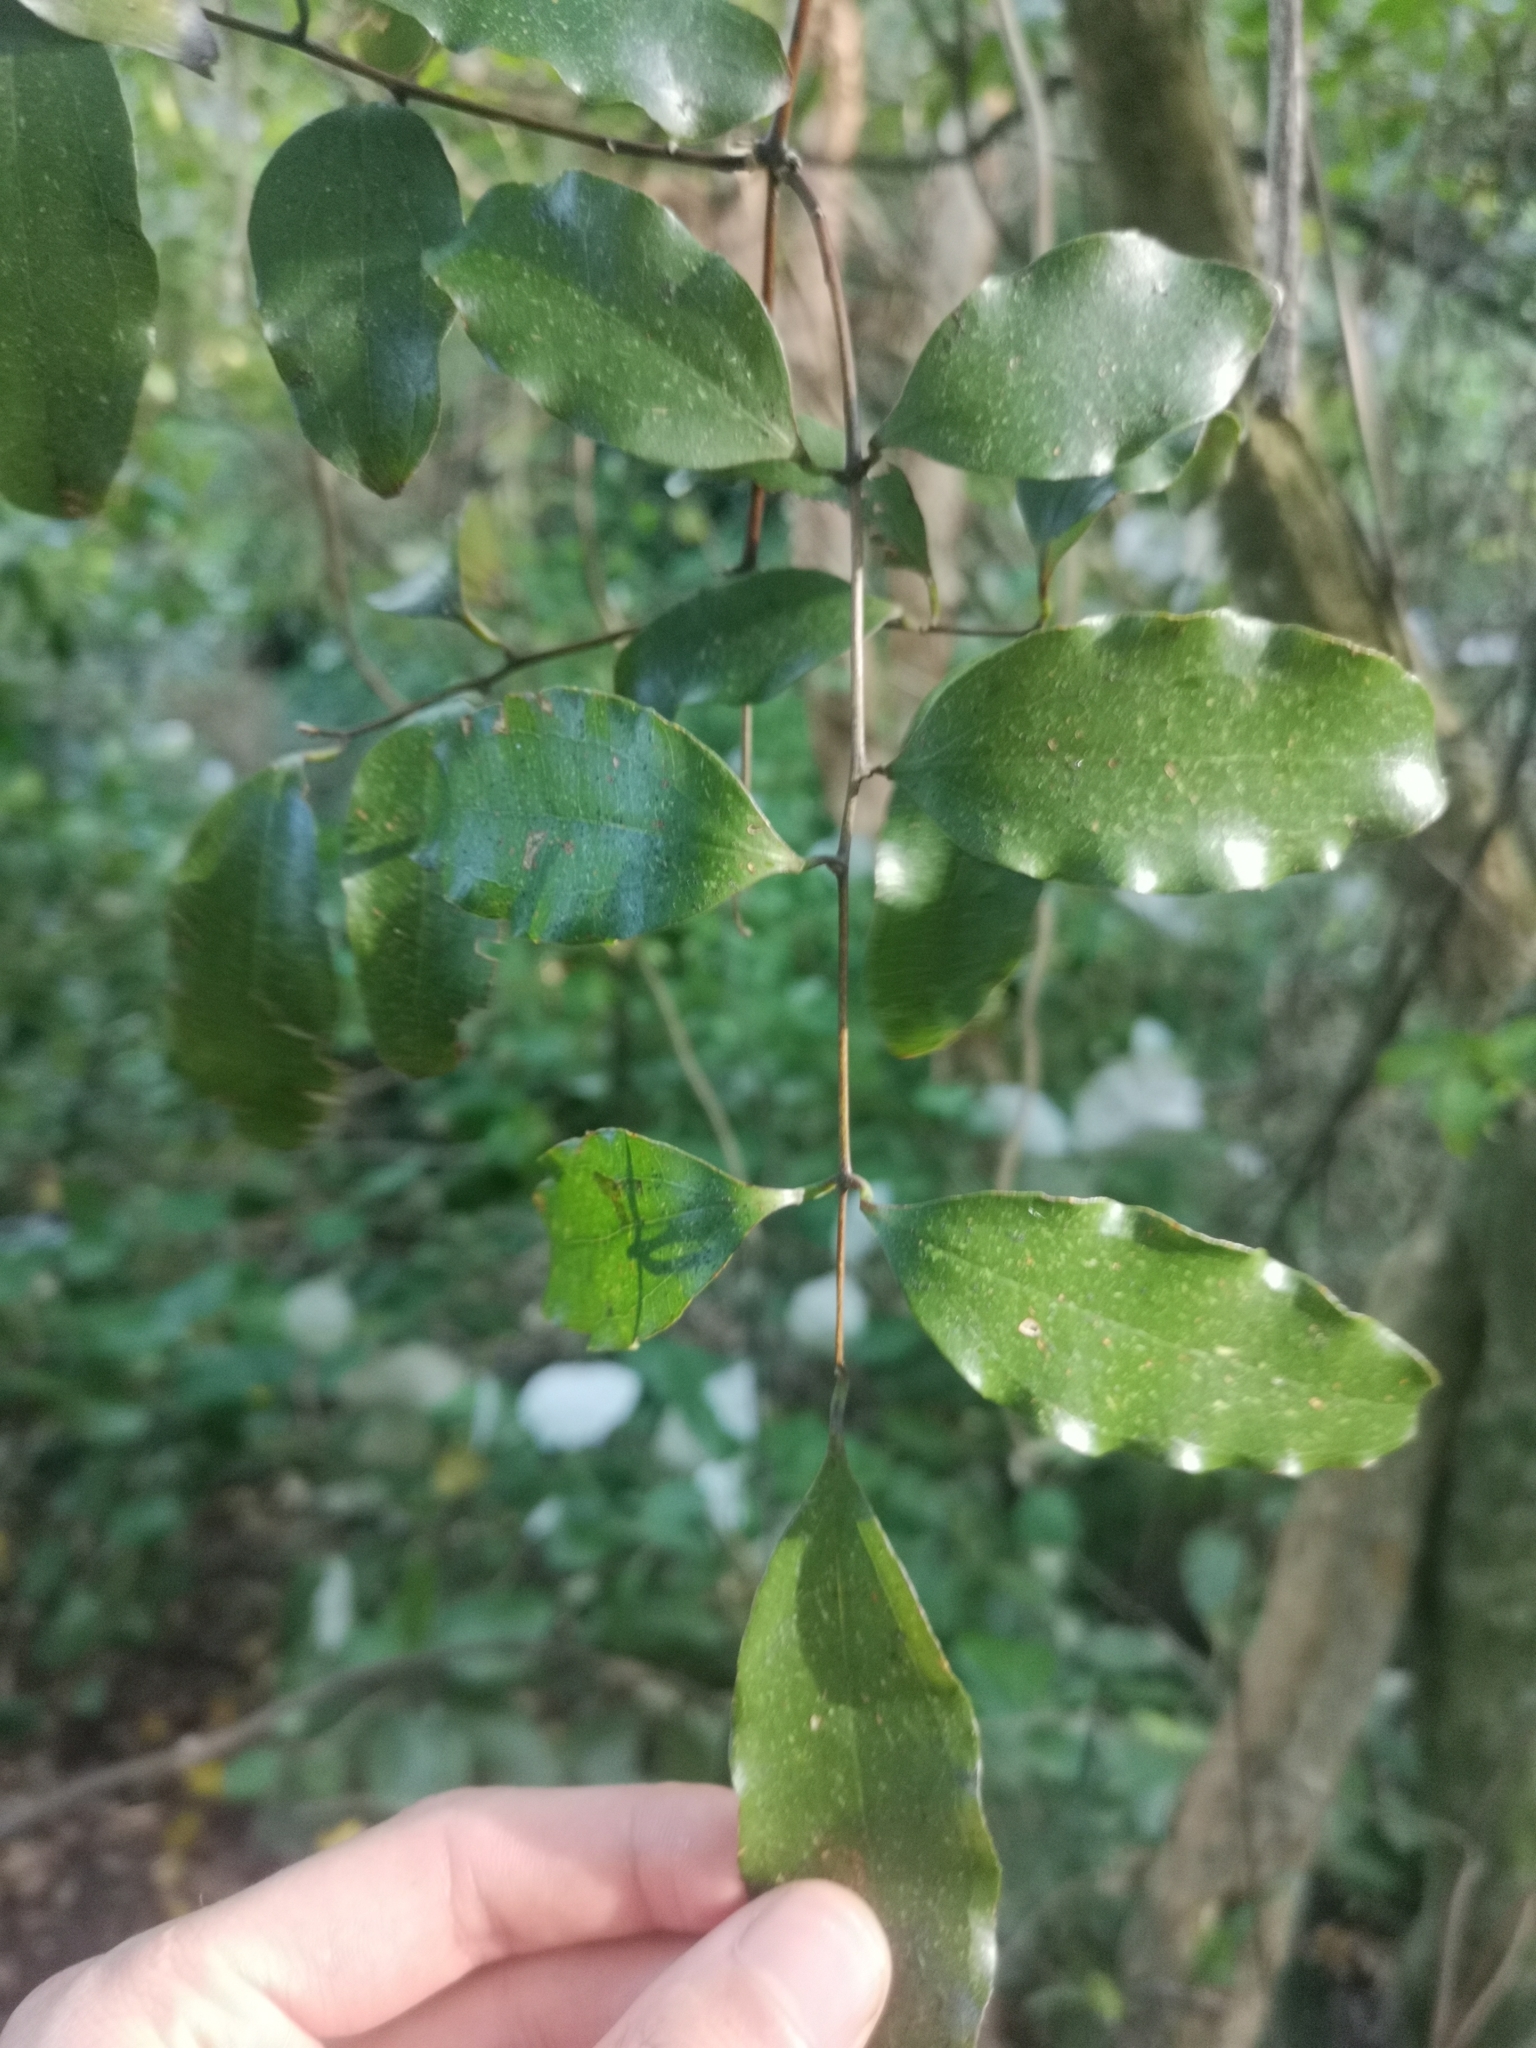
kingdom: Plantae
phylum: Tracheophyta
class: Liliopsida
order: Liliales
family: Ripogonaceae
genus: Ripogonum
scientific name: Ripogonum scandens
